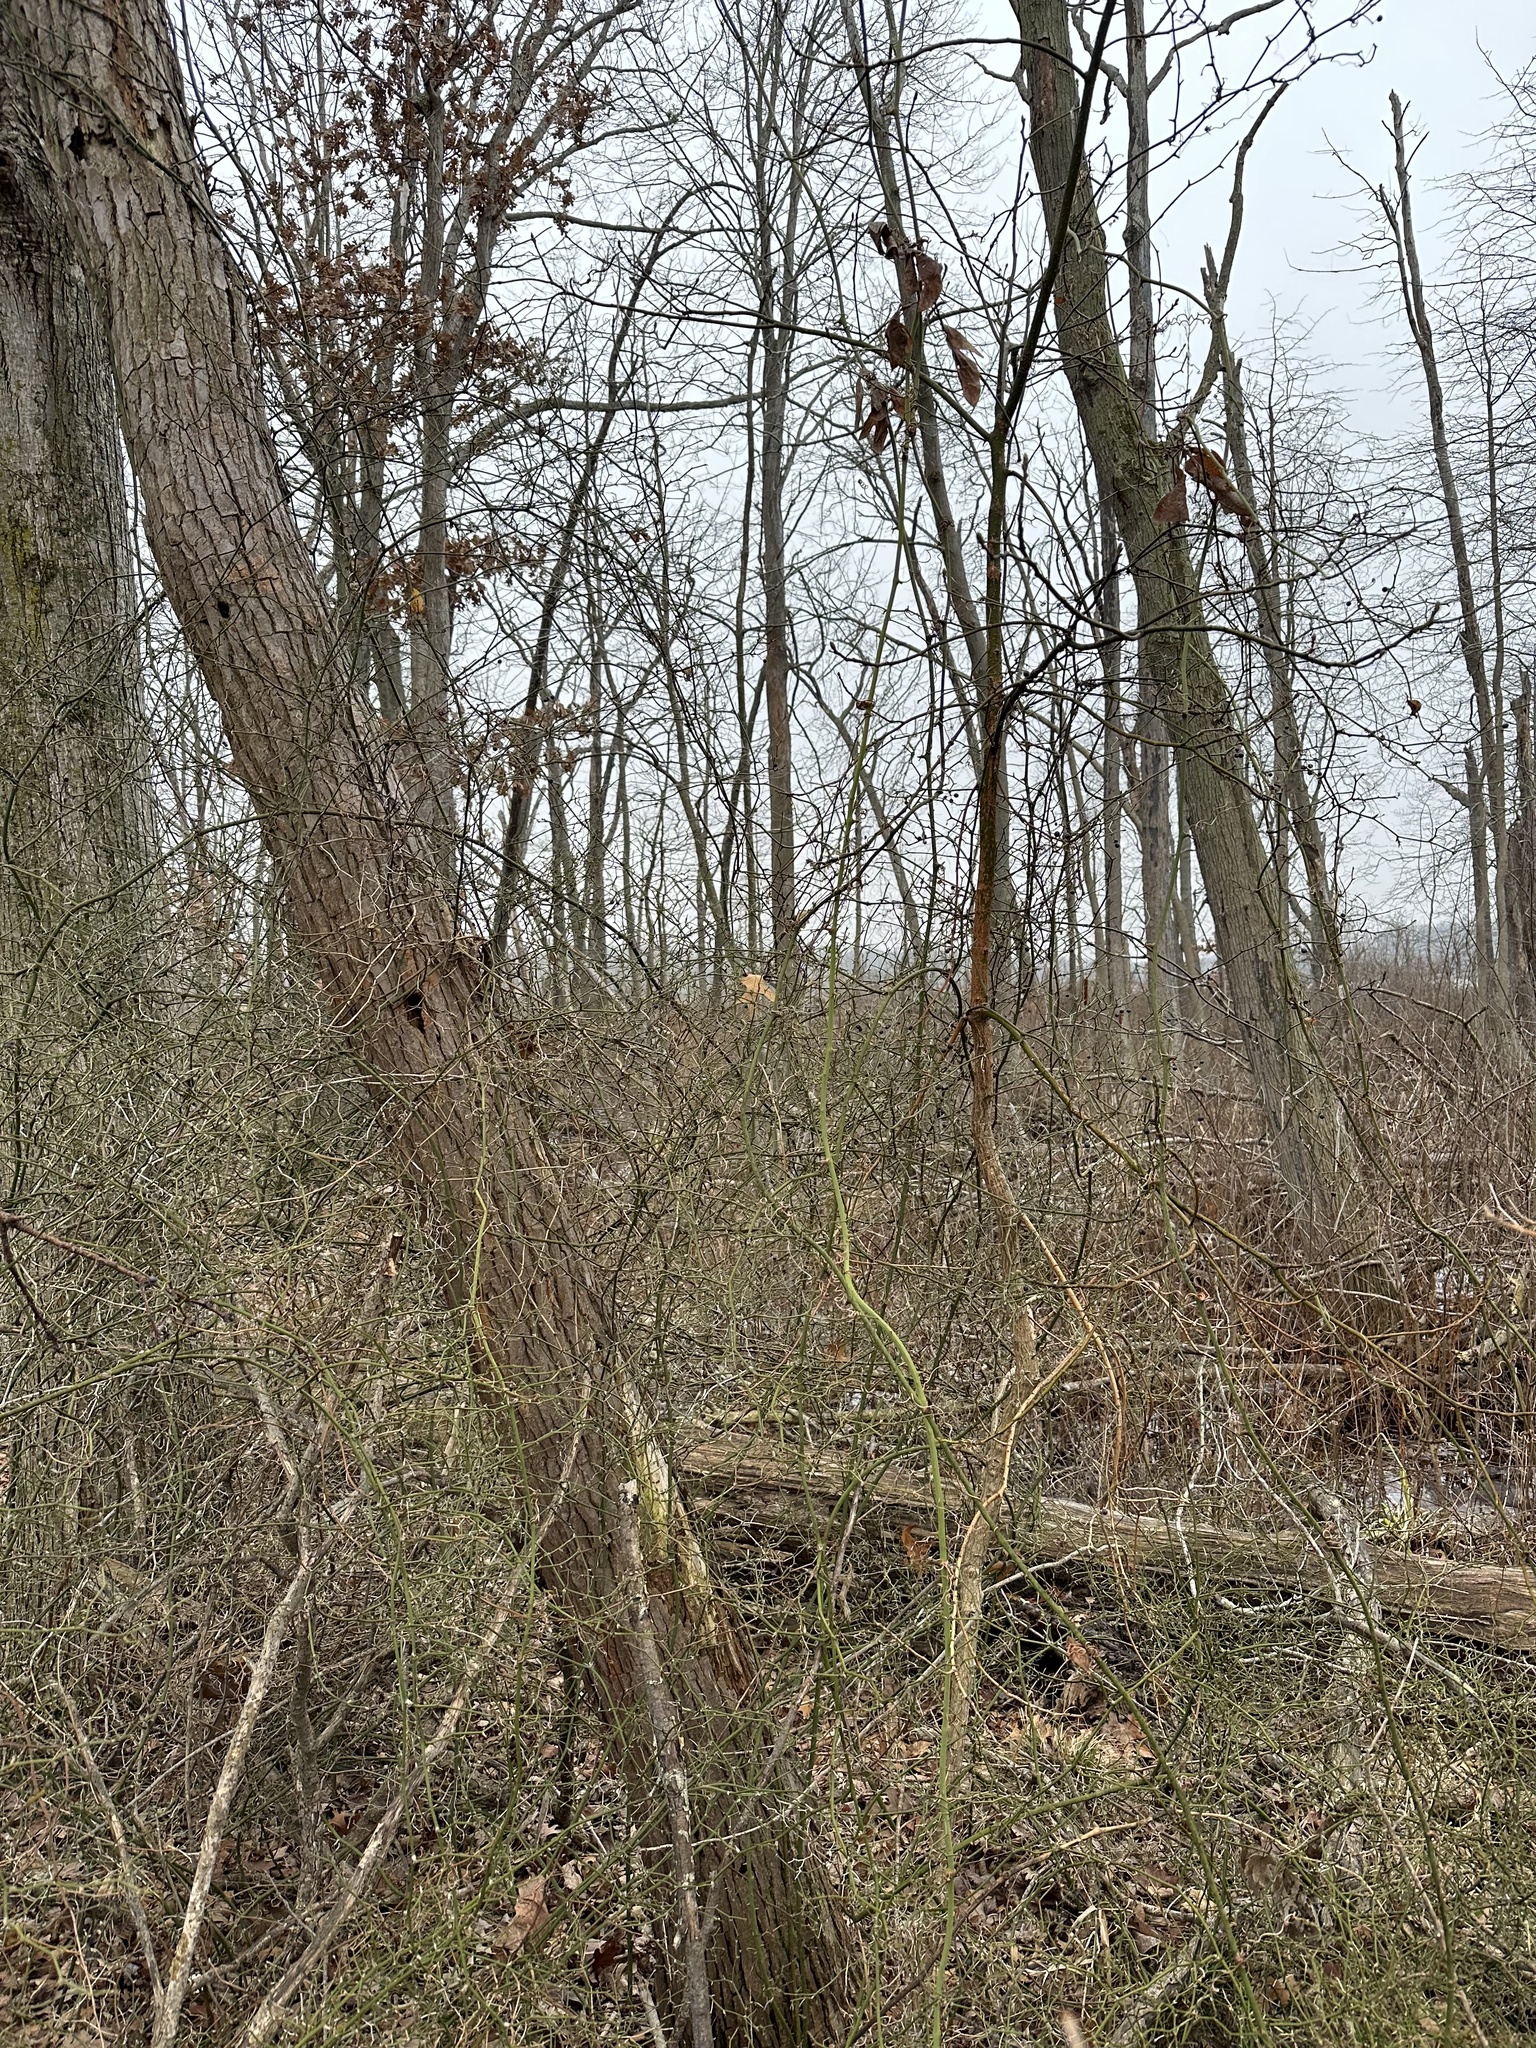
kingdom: Plantae
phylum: Tracheophyta
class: Liliopsida
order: Liliales
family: Smilacaceae
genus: Smilax
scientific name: Smilax rotundifolia
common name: Bullbriar
